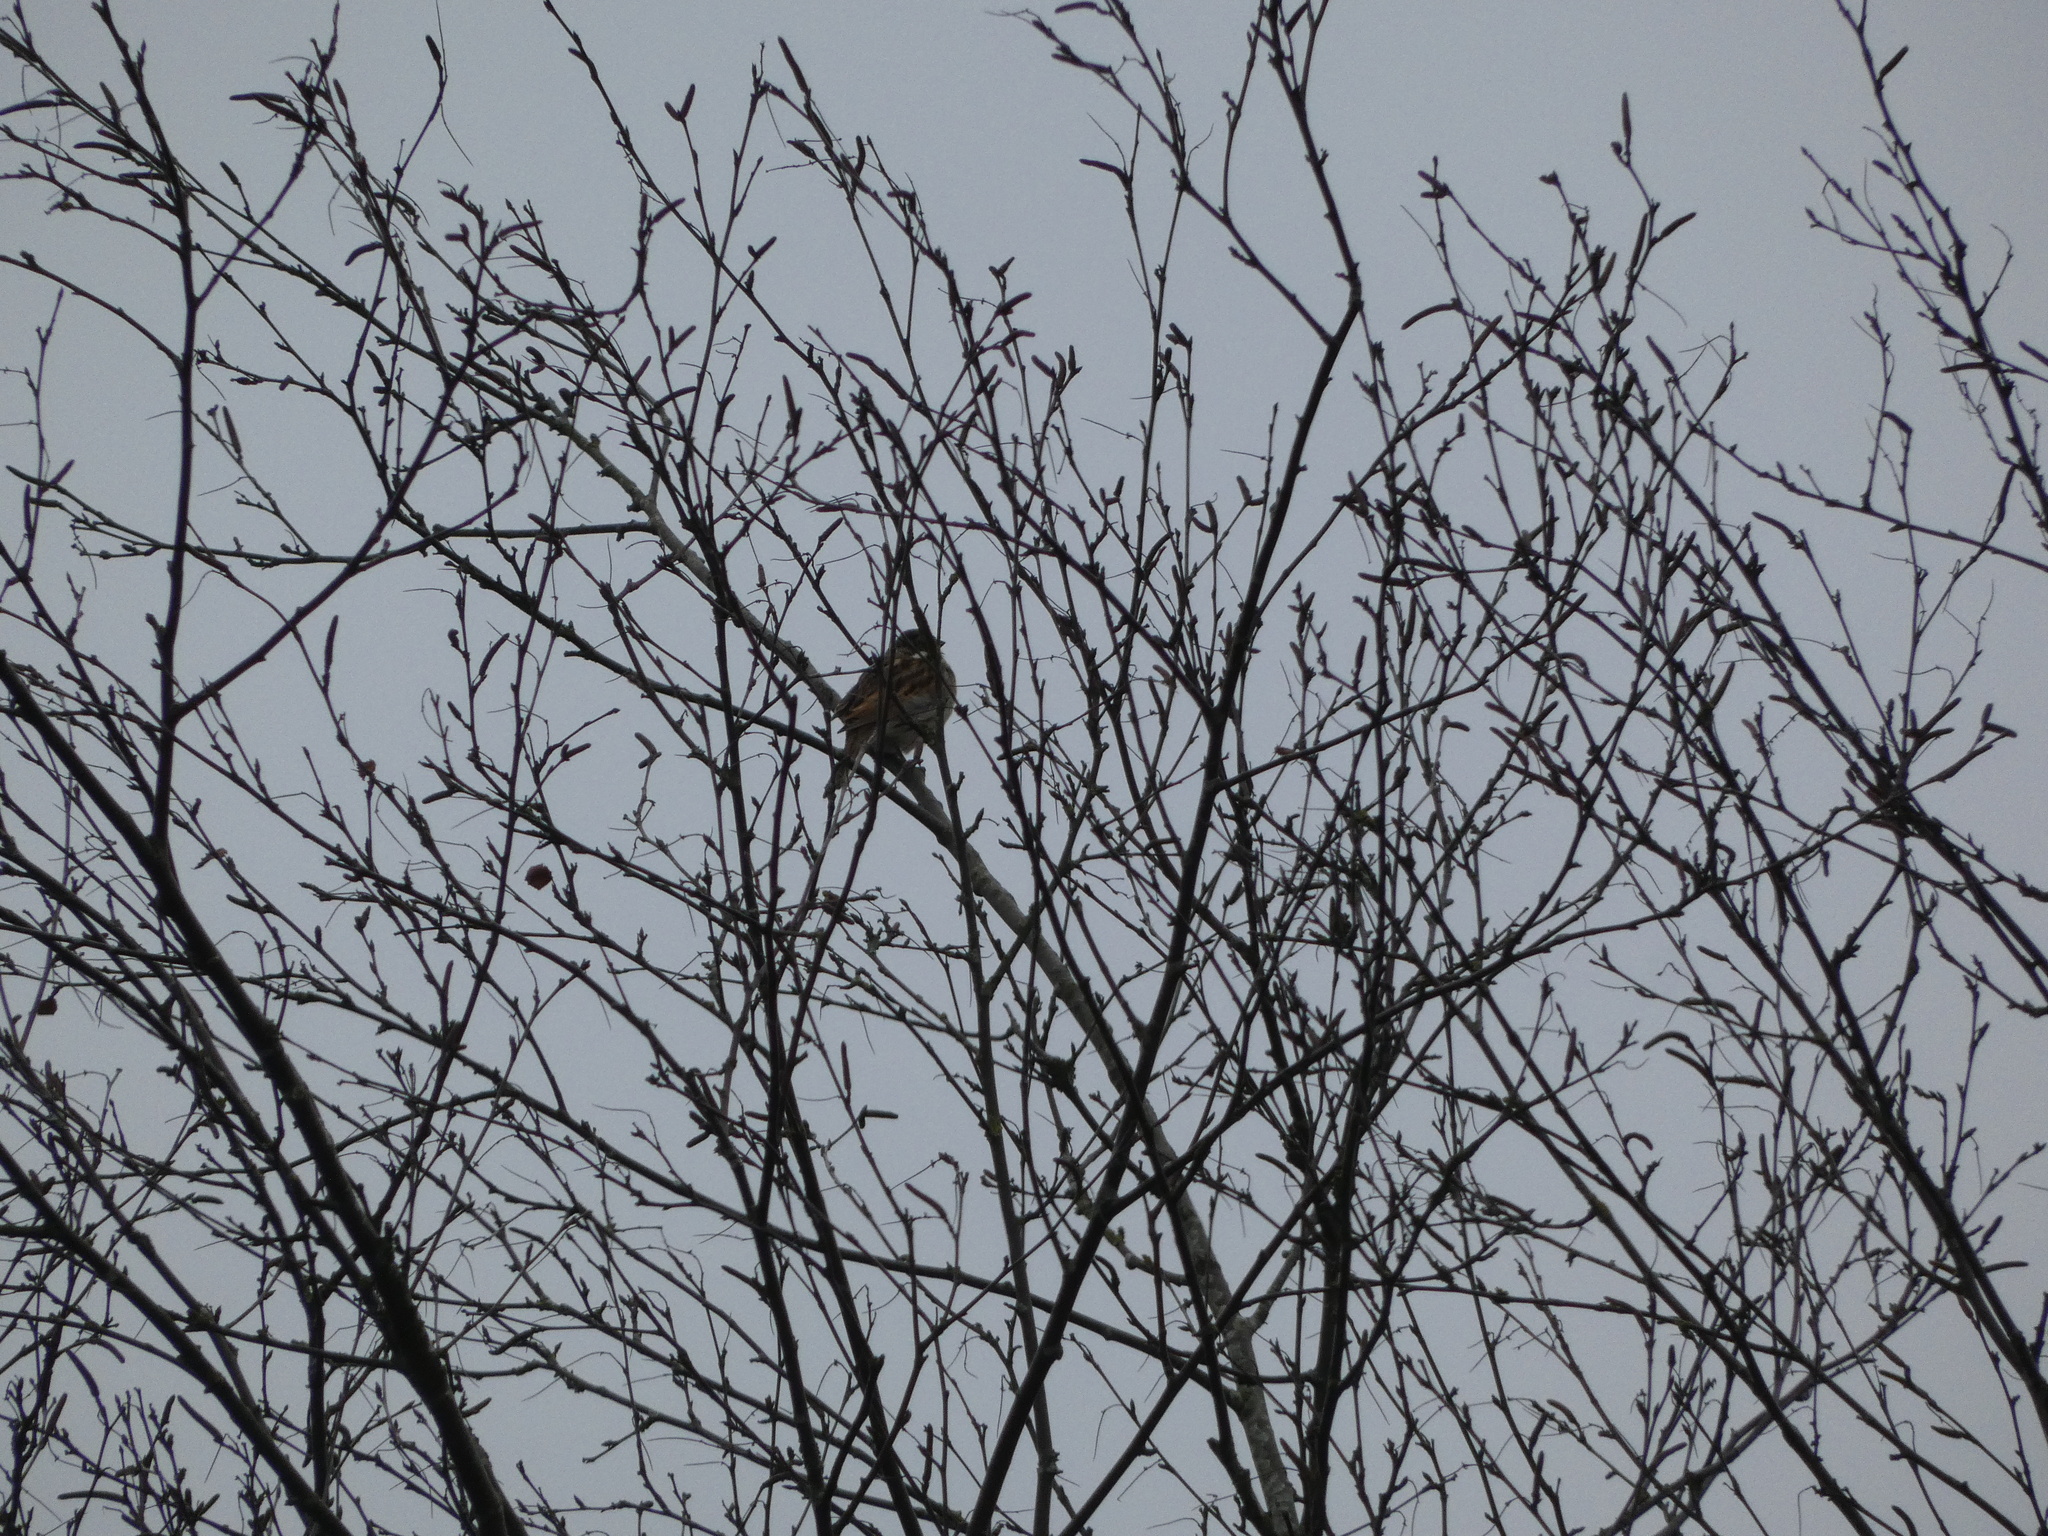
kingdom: Animalia
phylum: Chordata
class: Aves
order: Passeriformes
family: Emberizidae
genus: Emberiza
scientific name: Emberiza schoeniclus
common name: Reed bunting
